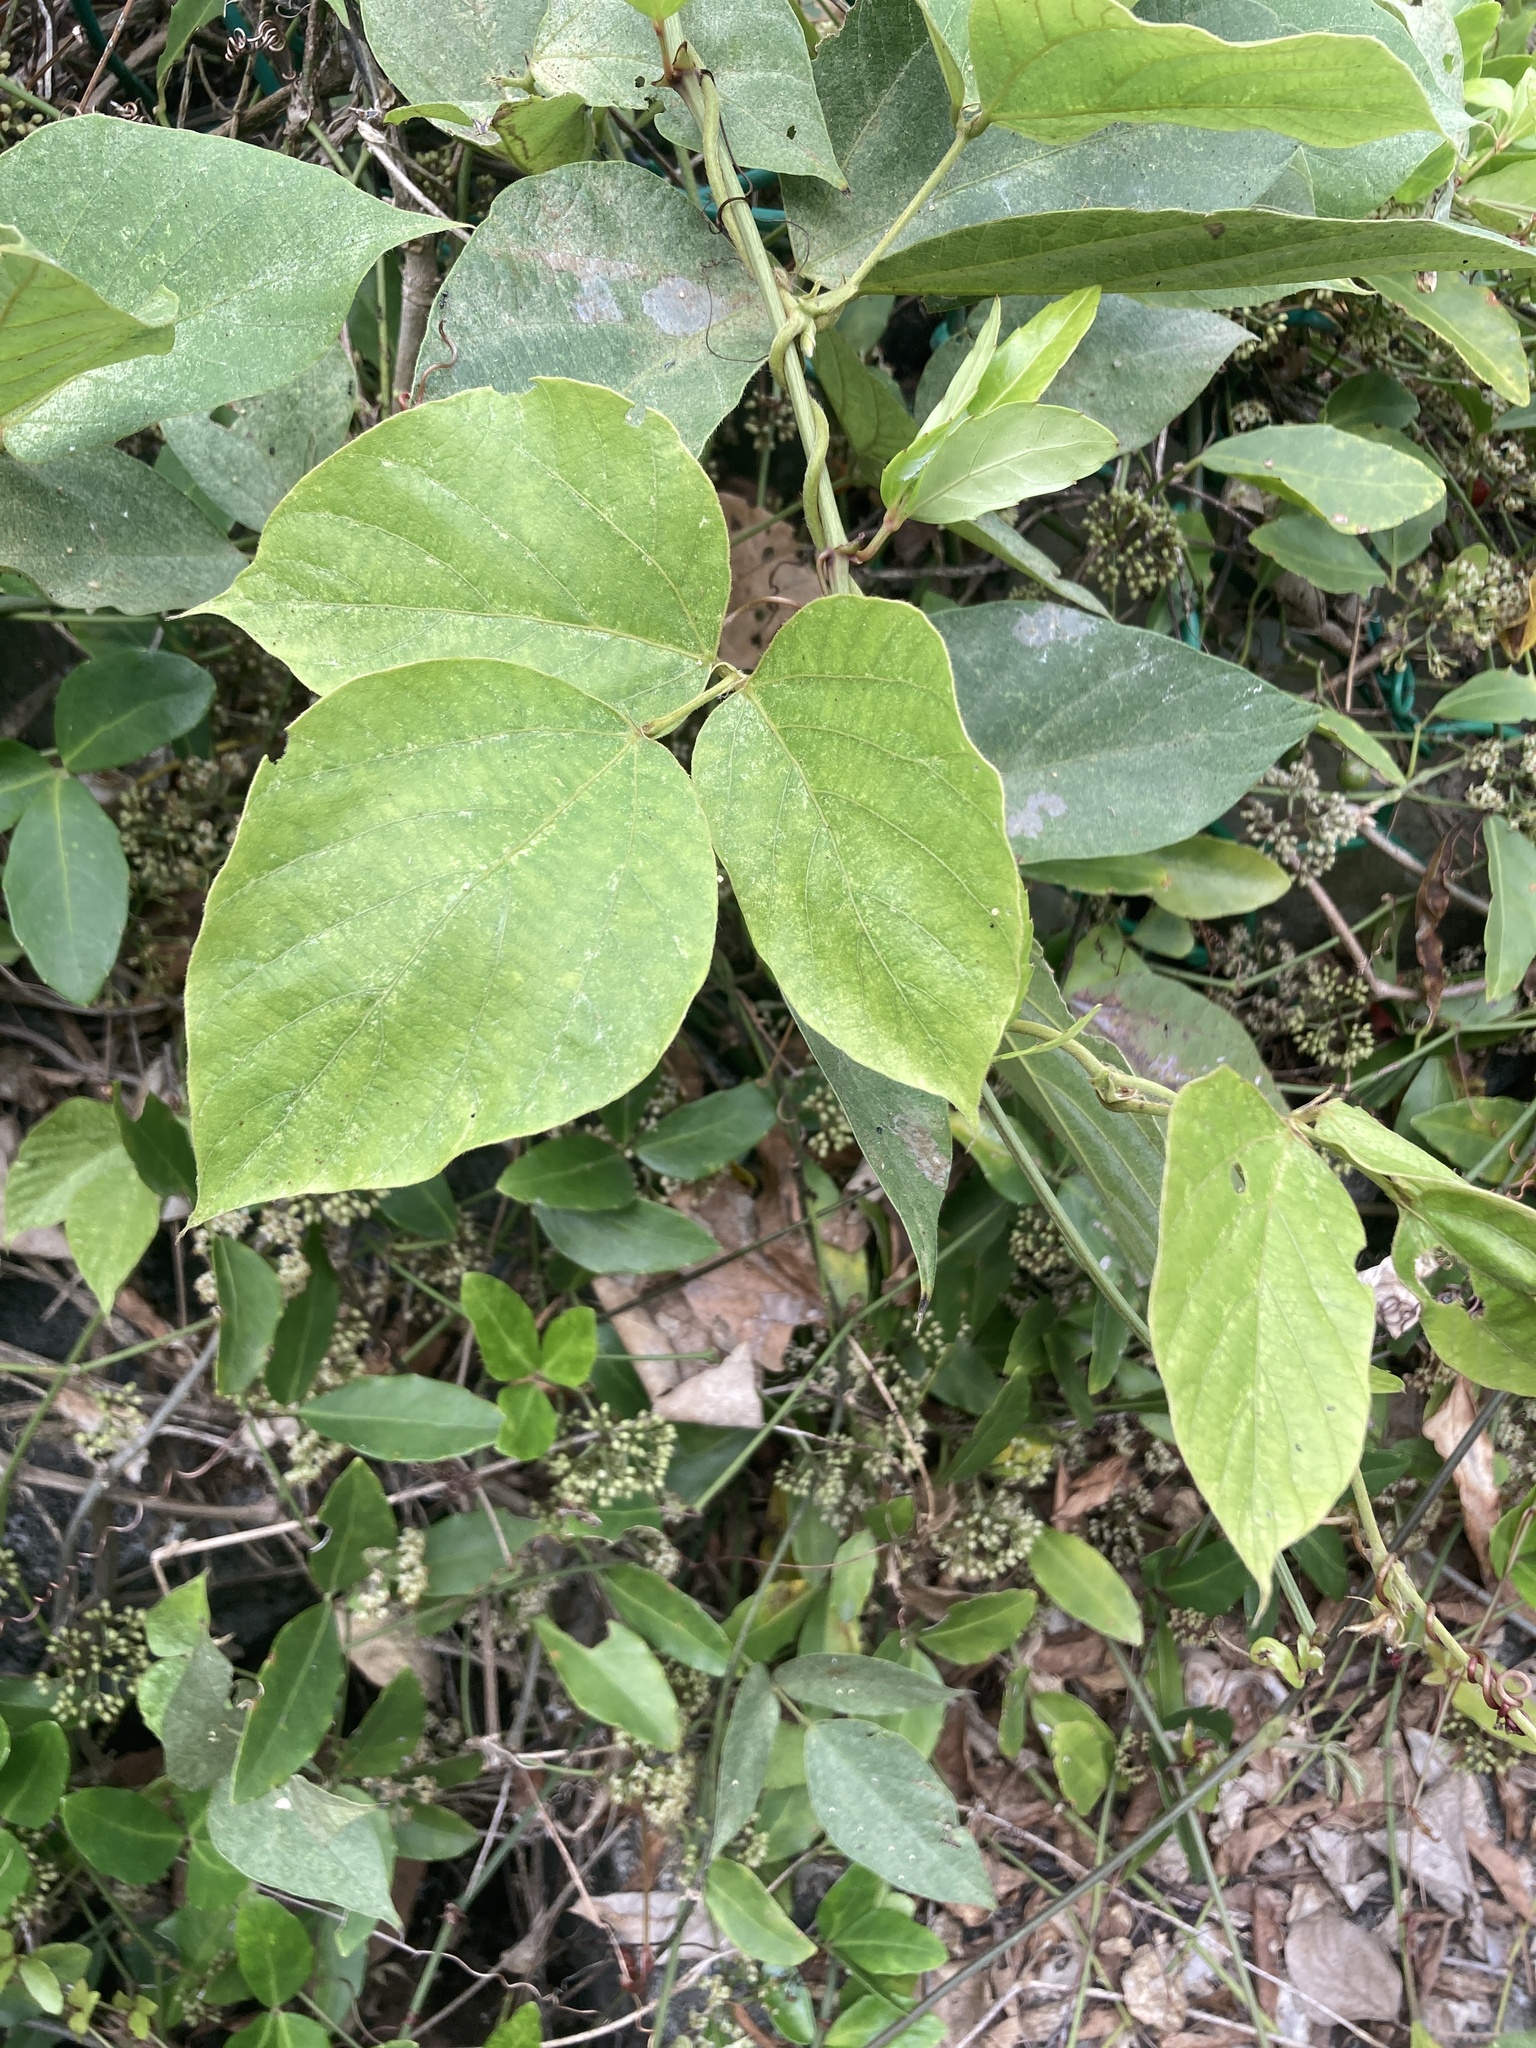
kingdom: Plantae
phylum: Tracheophyta
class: Magnoliopsida
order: Fabales
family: Fabaceae
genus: Pueraria
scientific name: Pueraria montana
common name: Kudzu
